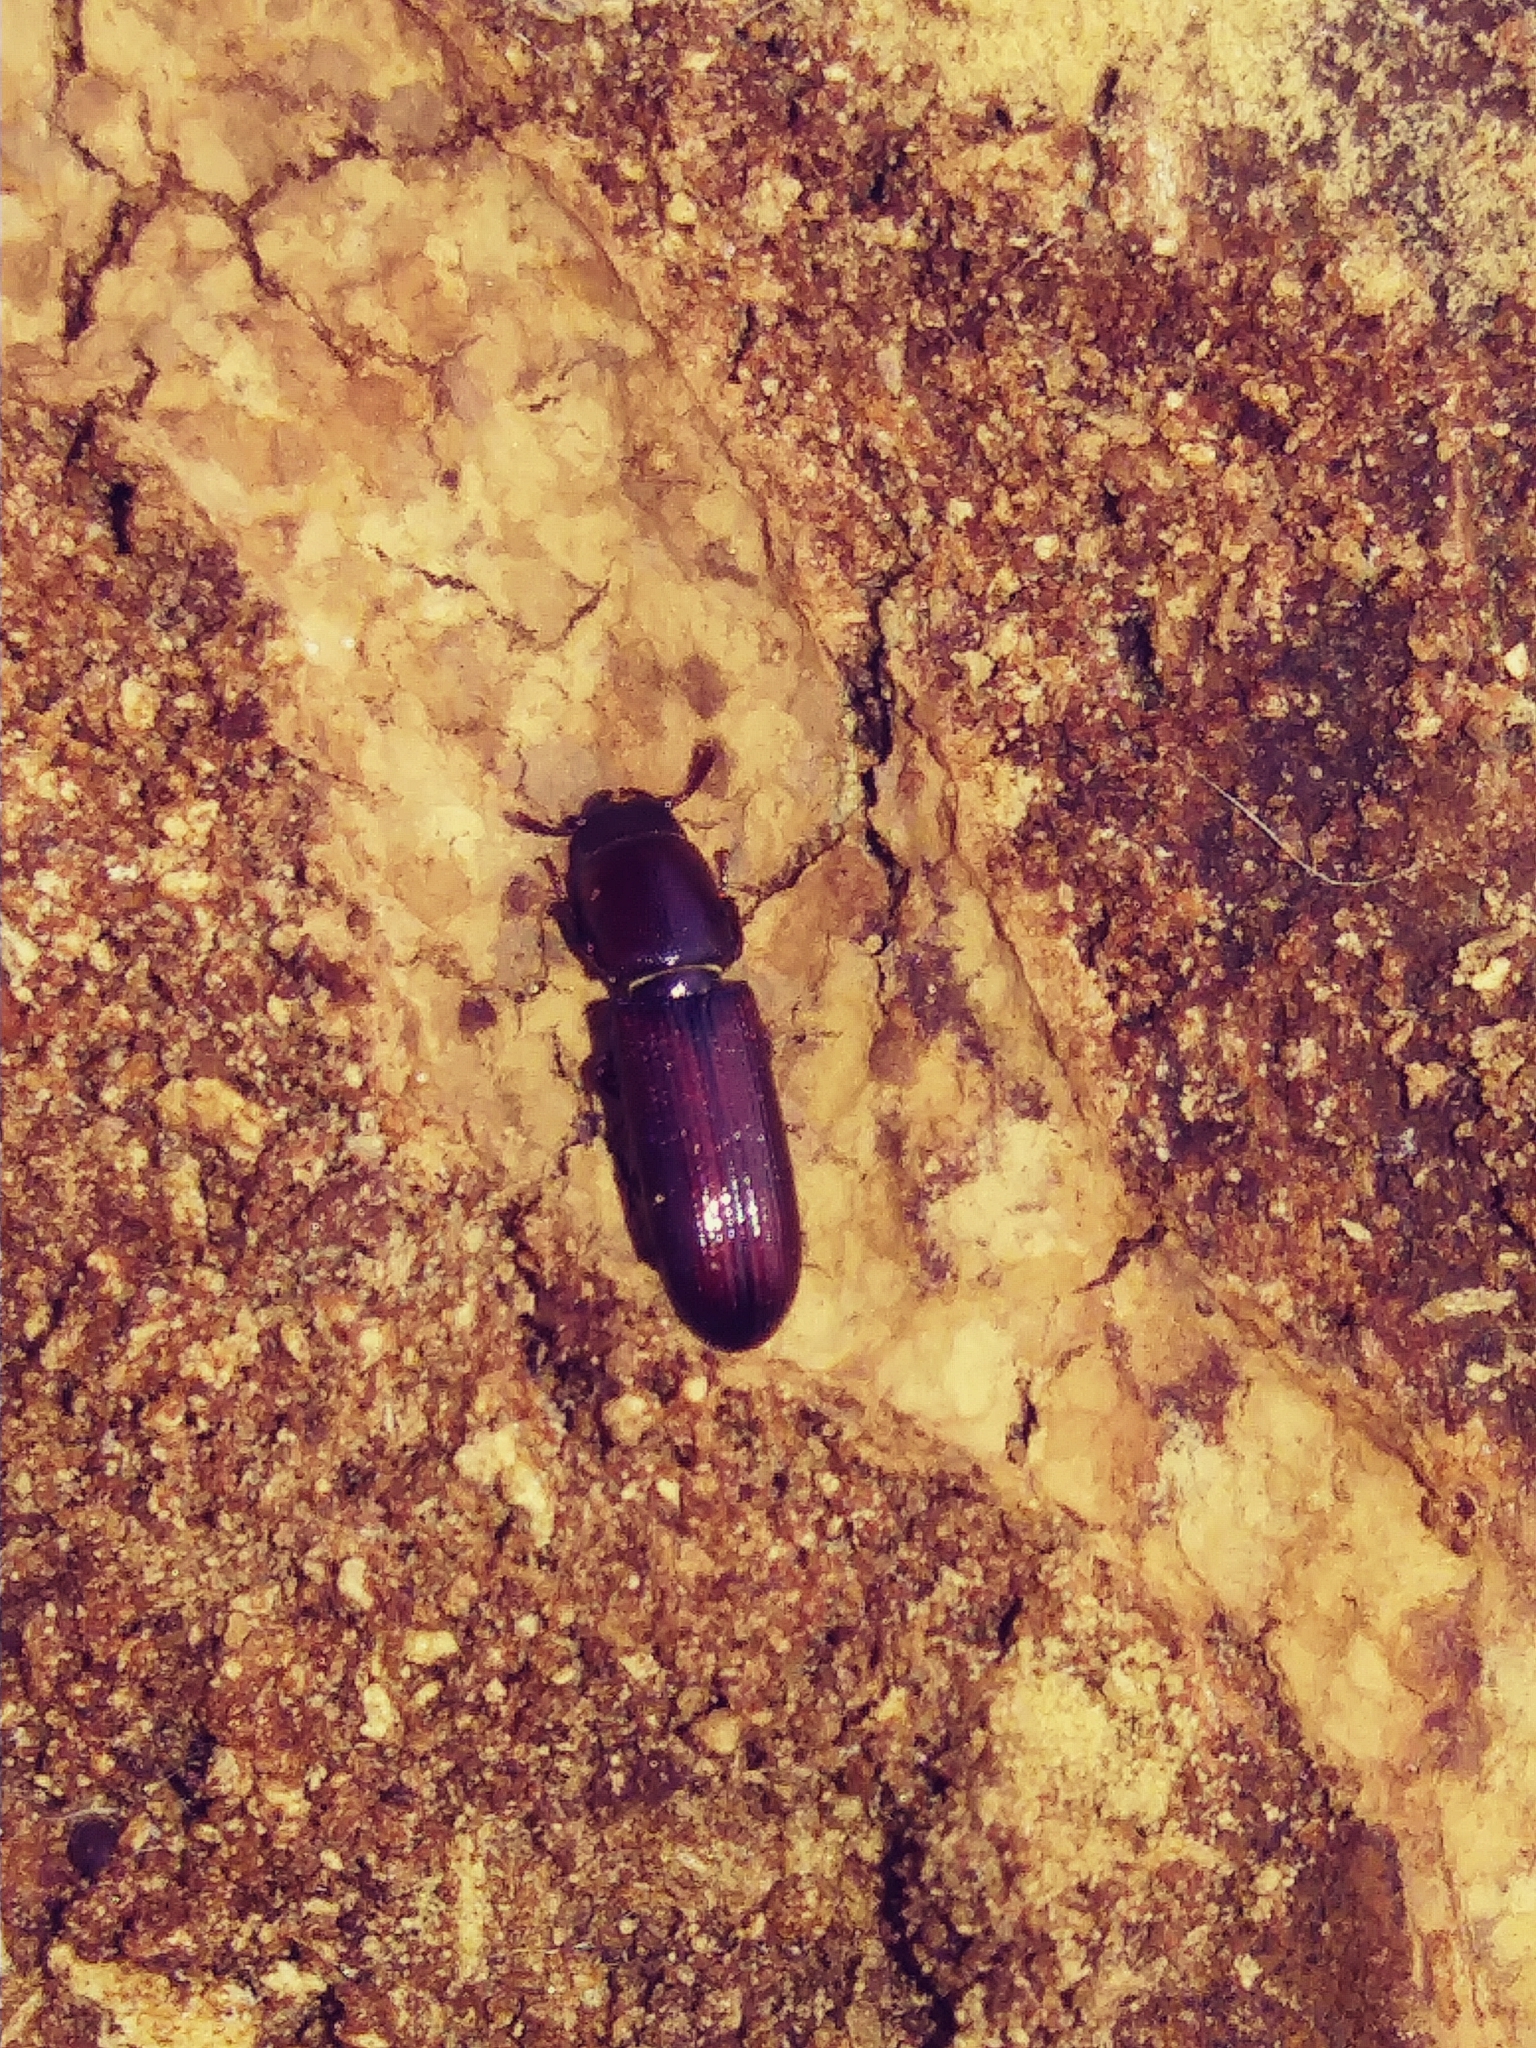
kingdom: Animalia
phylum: Arthropoda
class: Insecta
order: Coleoptera
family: Trogossitidae
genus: Airora
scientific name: Airora cylindrica
